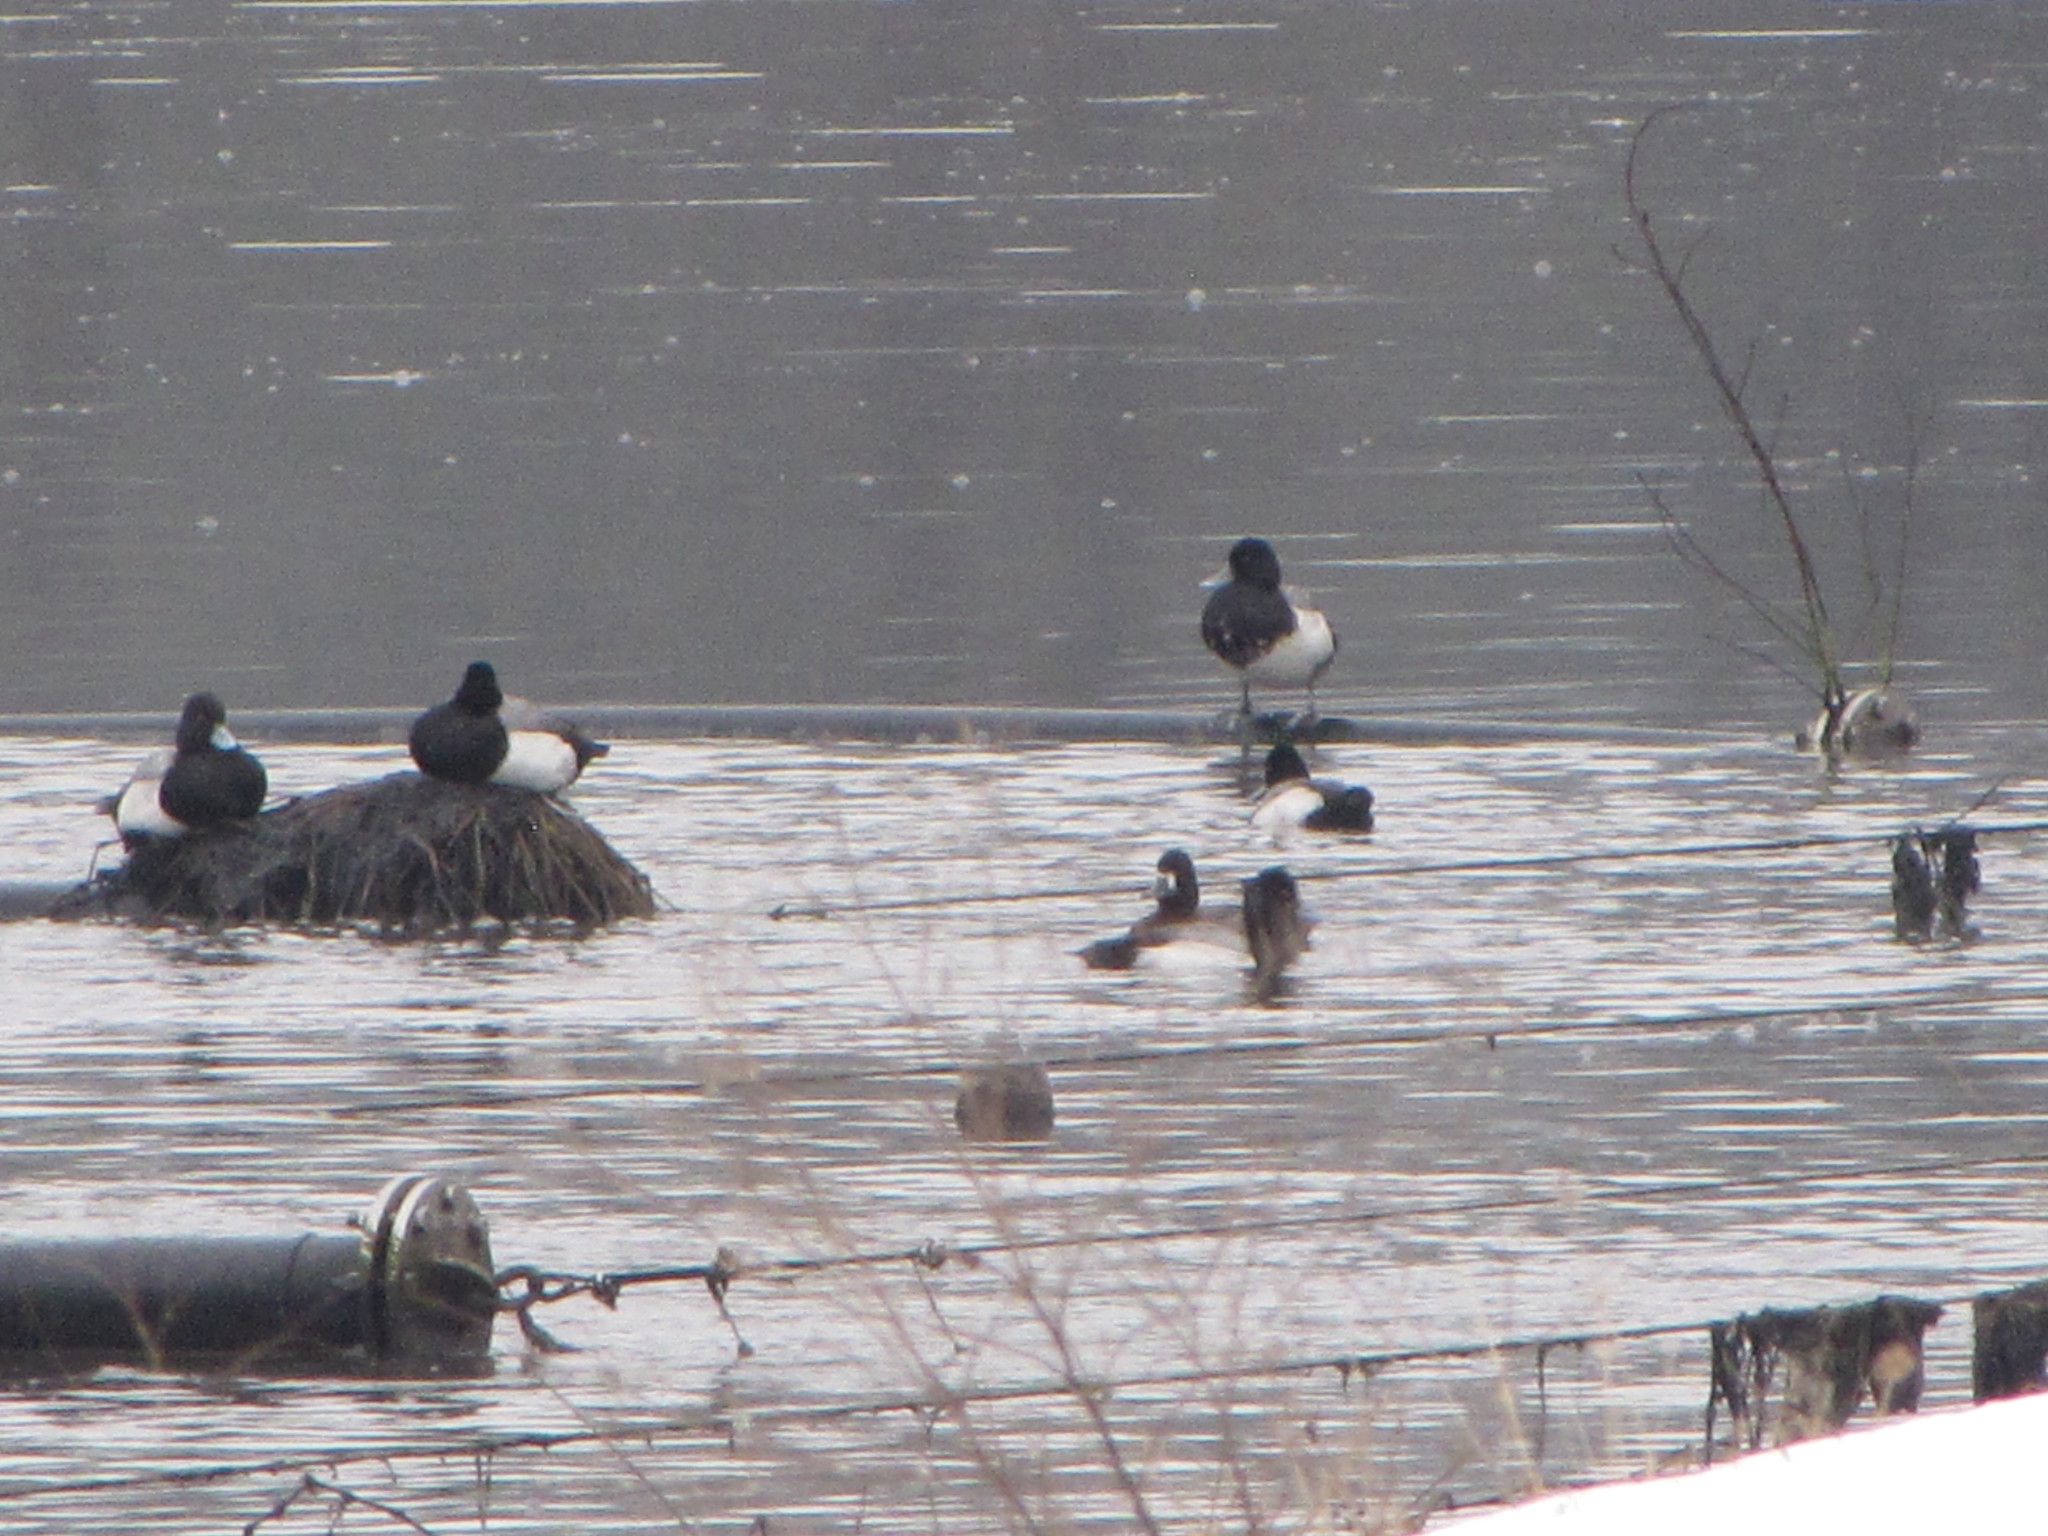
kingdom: Animalia
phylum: Chordata
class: Aves
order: Anseriformes
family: Anatidae
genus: Aythya
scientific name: Aythya affinis
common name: Lesser scaup
